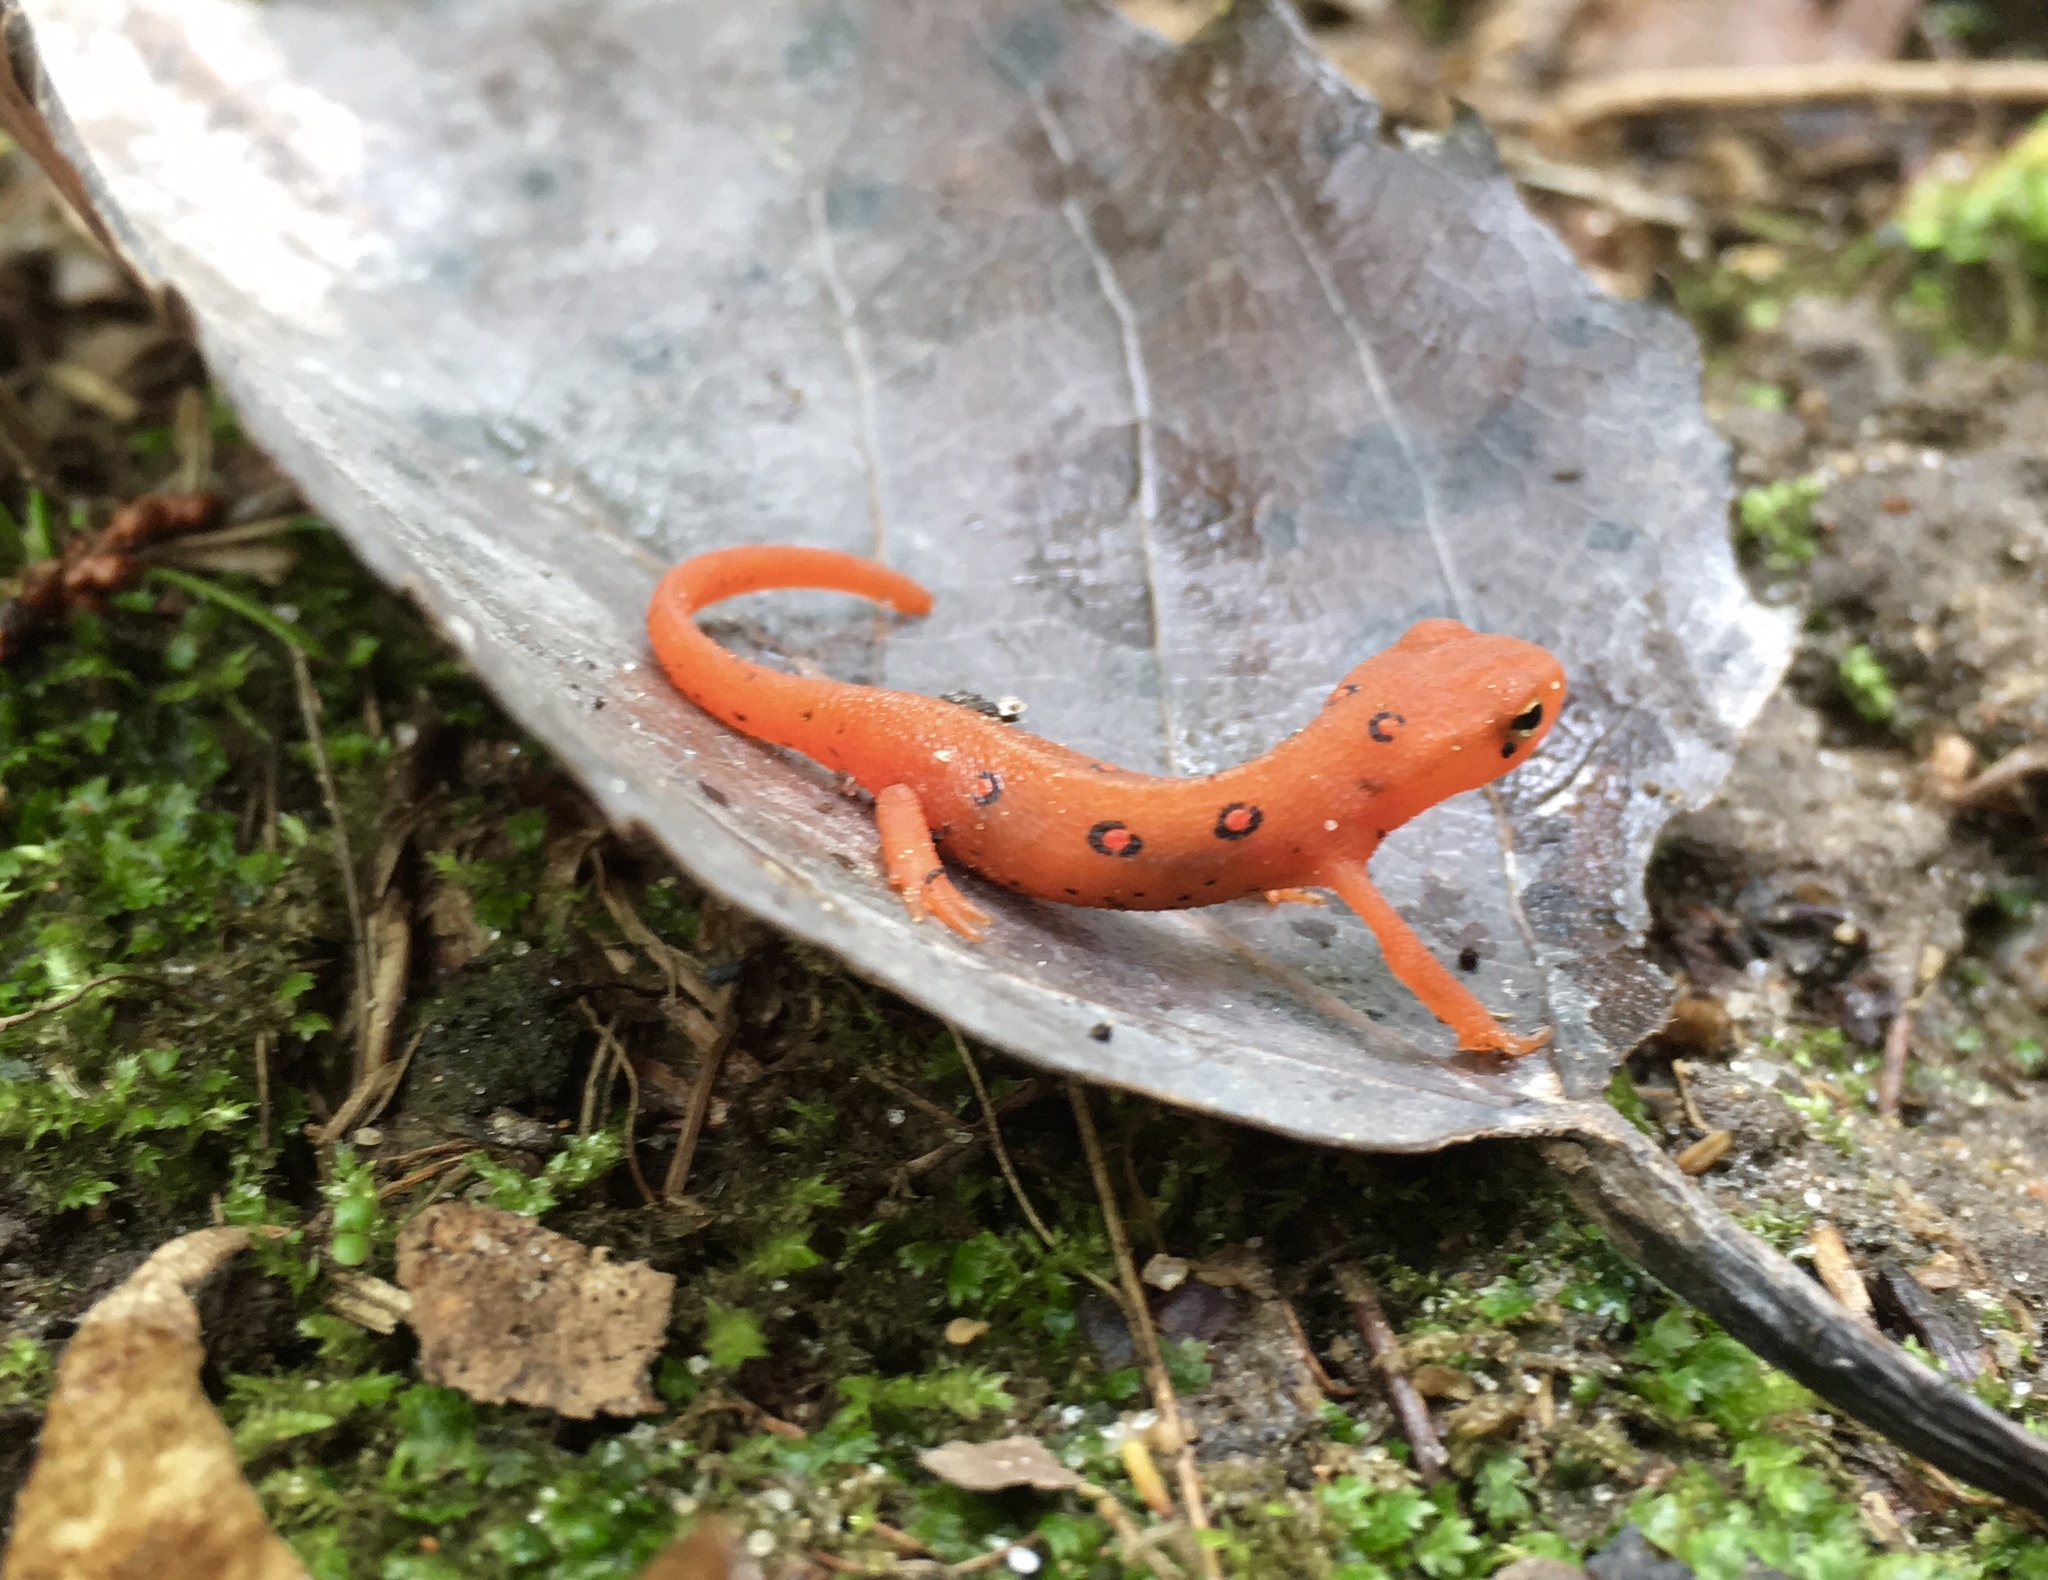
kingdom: Animalia
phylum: Chordata
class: Amphibia
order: Caudata
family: Salamandridae
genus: Notophthalmus
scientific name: Notophthalmus viridescens
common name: Eastern newt
